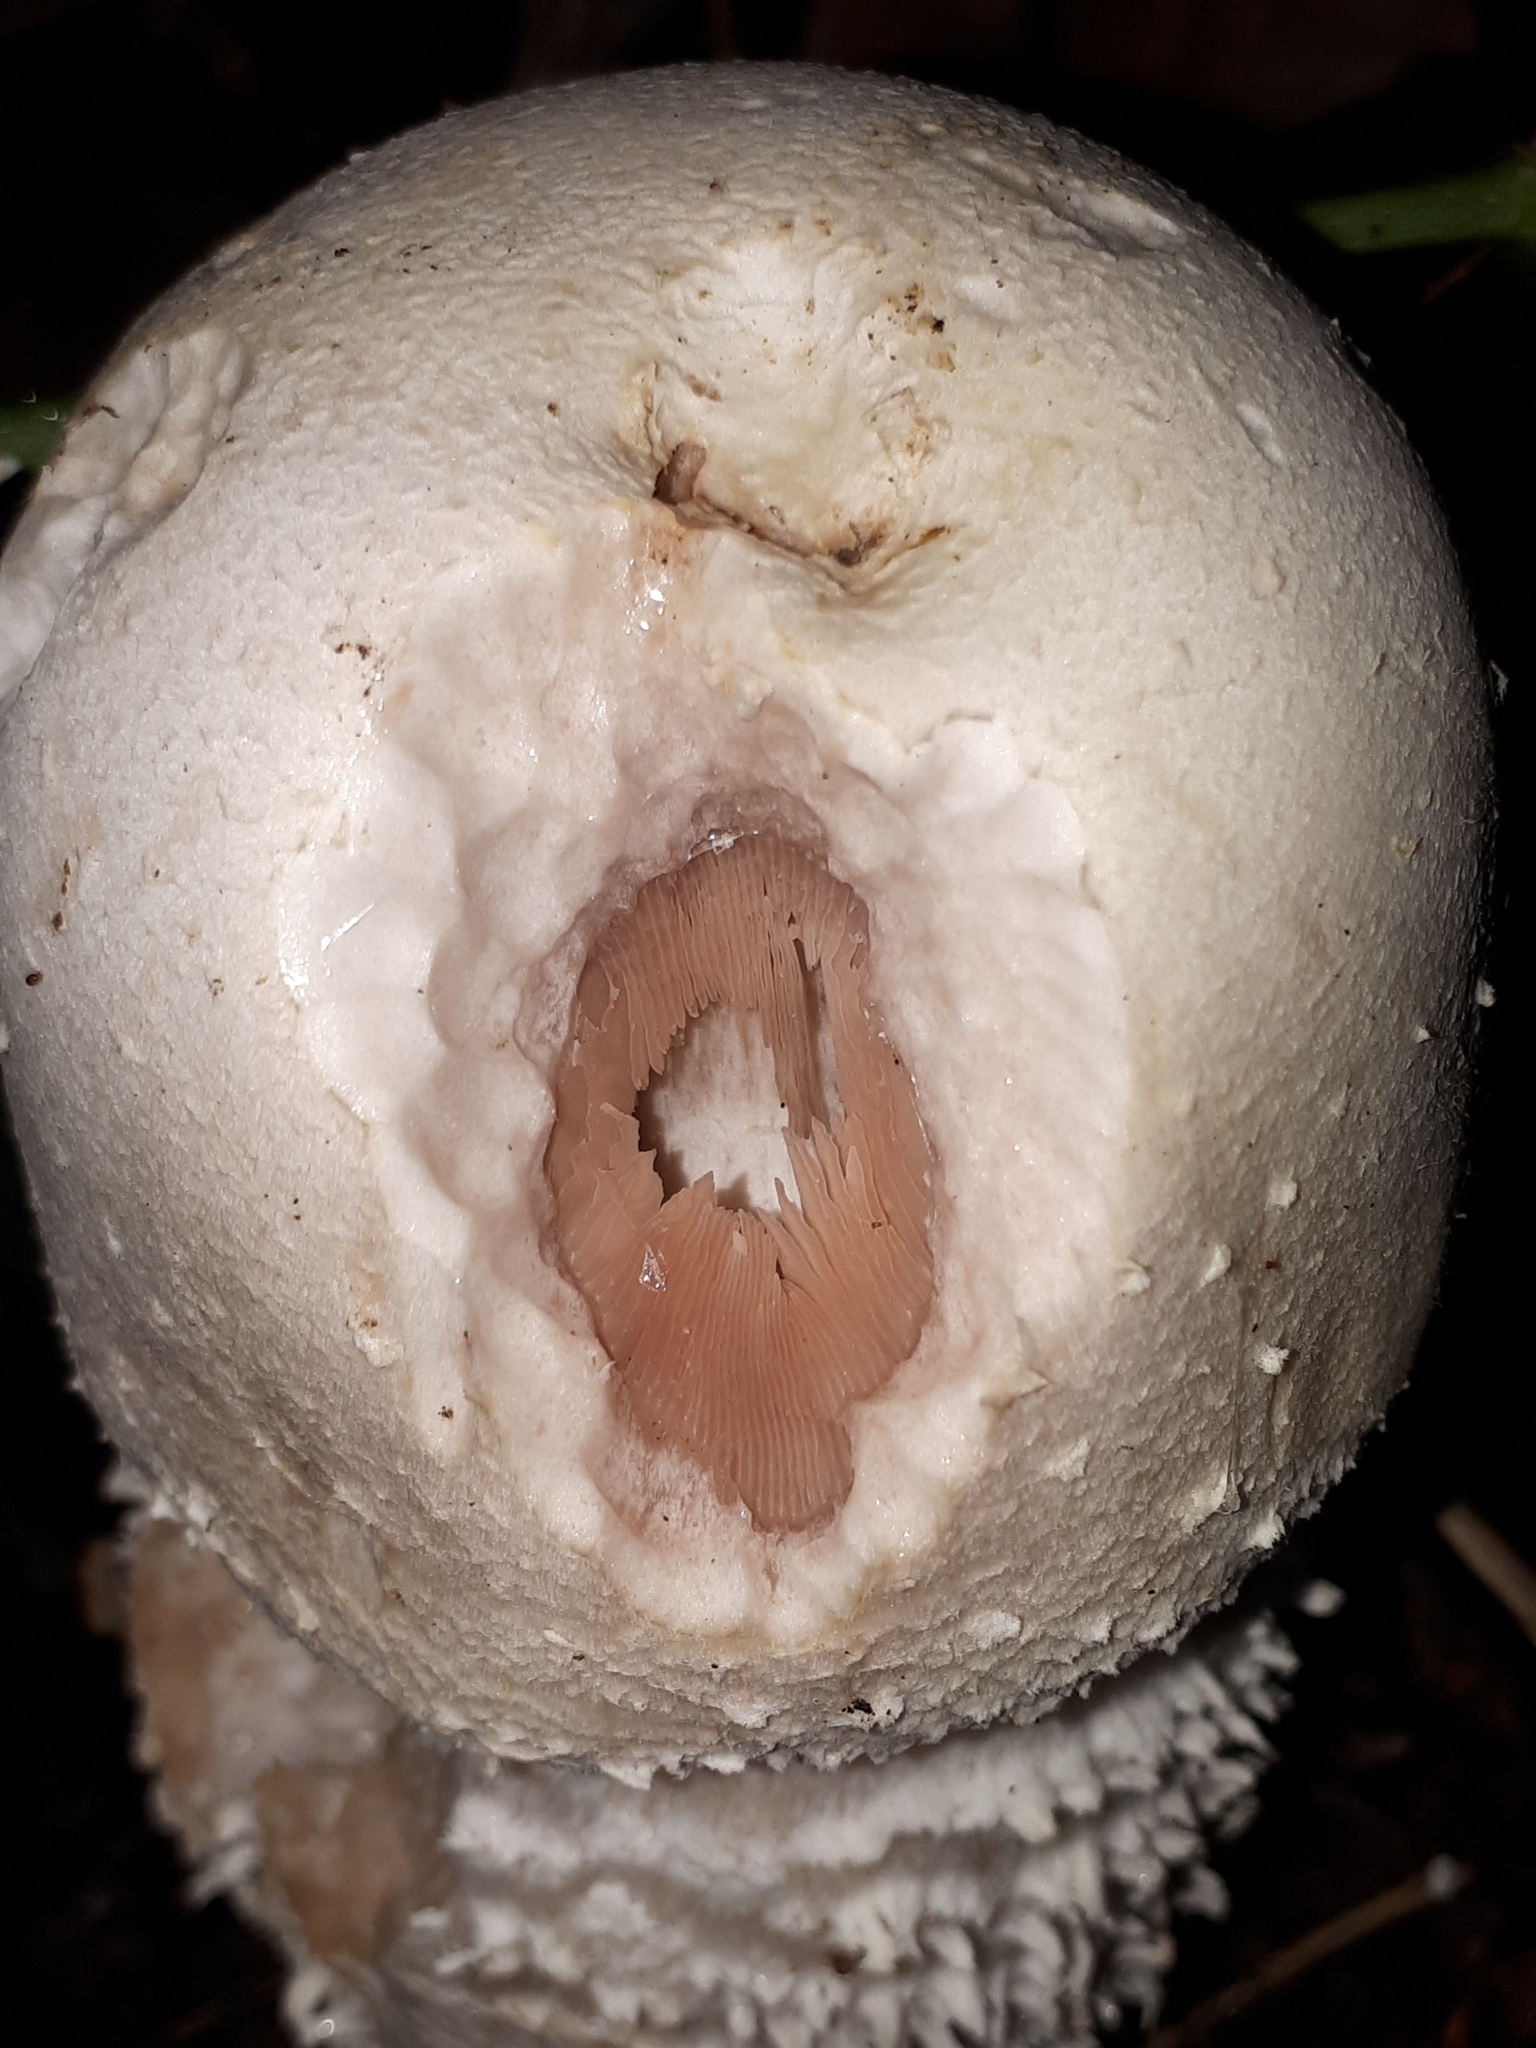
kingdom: Fungi
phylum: Basidiomycota
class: Agaricomycetes
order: Agaricales
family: Agaricaceae
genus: Agaricus
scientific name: Agaricus urinascens
